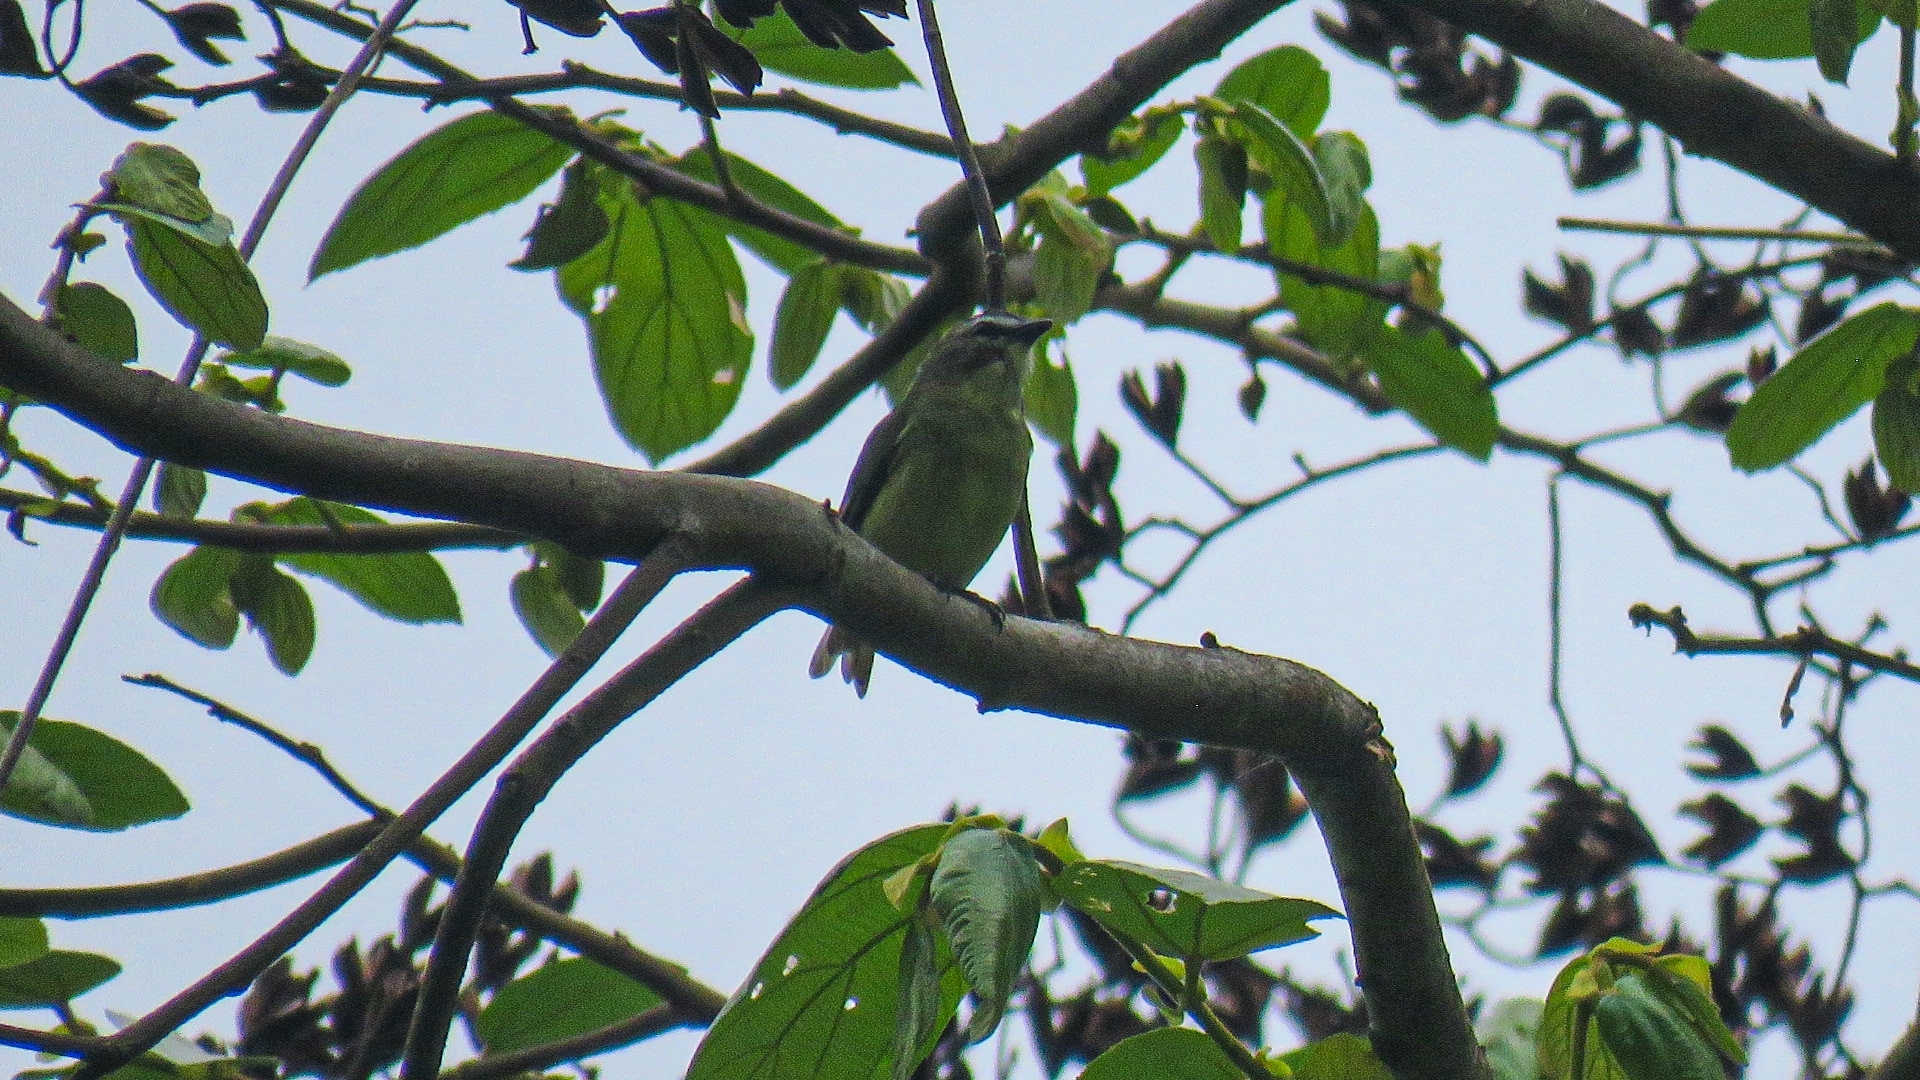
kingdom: Animalia
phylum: Chordata
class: Aves
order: Passeriformes
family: Tyrannidae
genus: Ornithion
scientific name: Ornithion brunneicapillus
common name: Brown-capped tyrannulet
